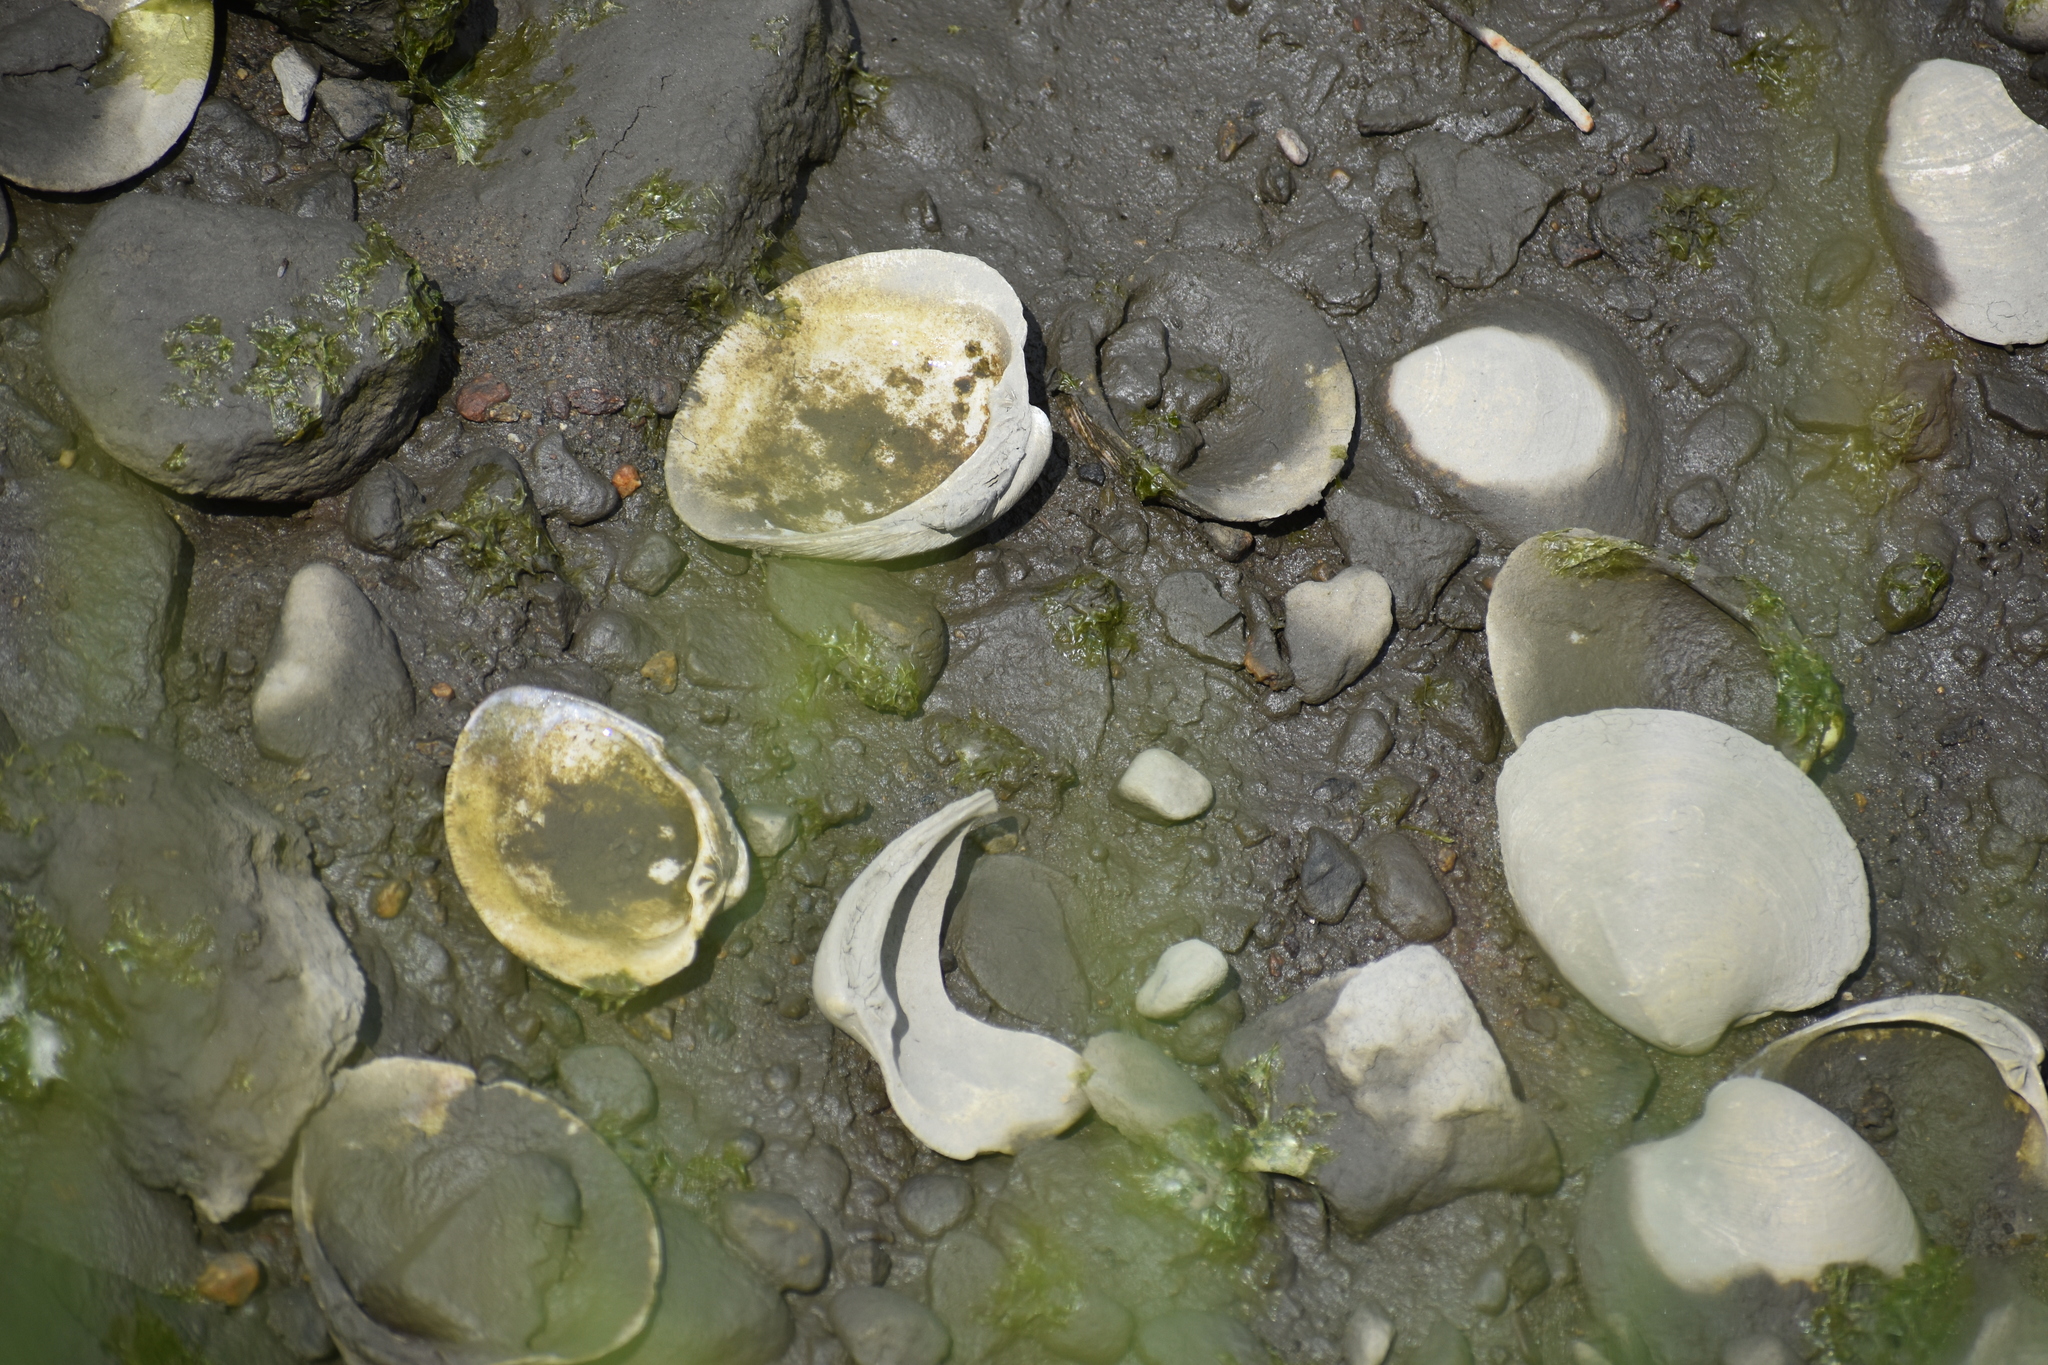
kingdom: Animalia
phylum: Mollusca
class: Bivalvia
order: Venerida
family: Veneridae
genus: Mercenaria
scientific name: Mercenaria mercenaria
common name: American hard-shelled clam
